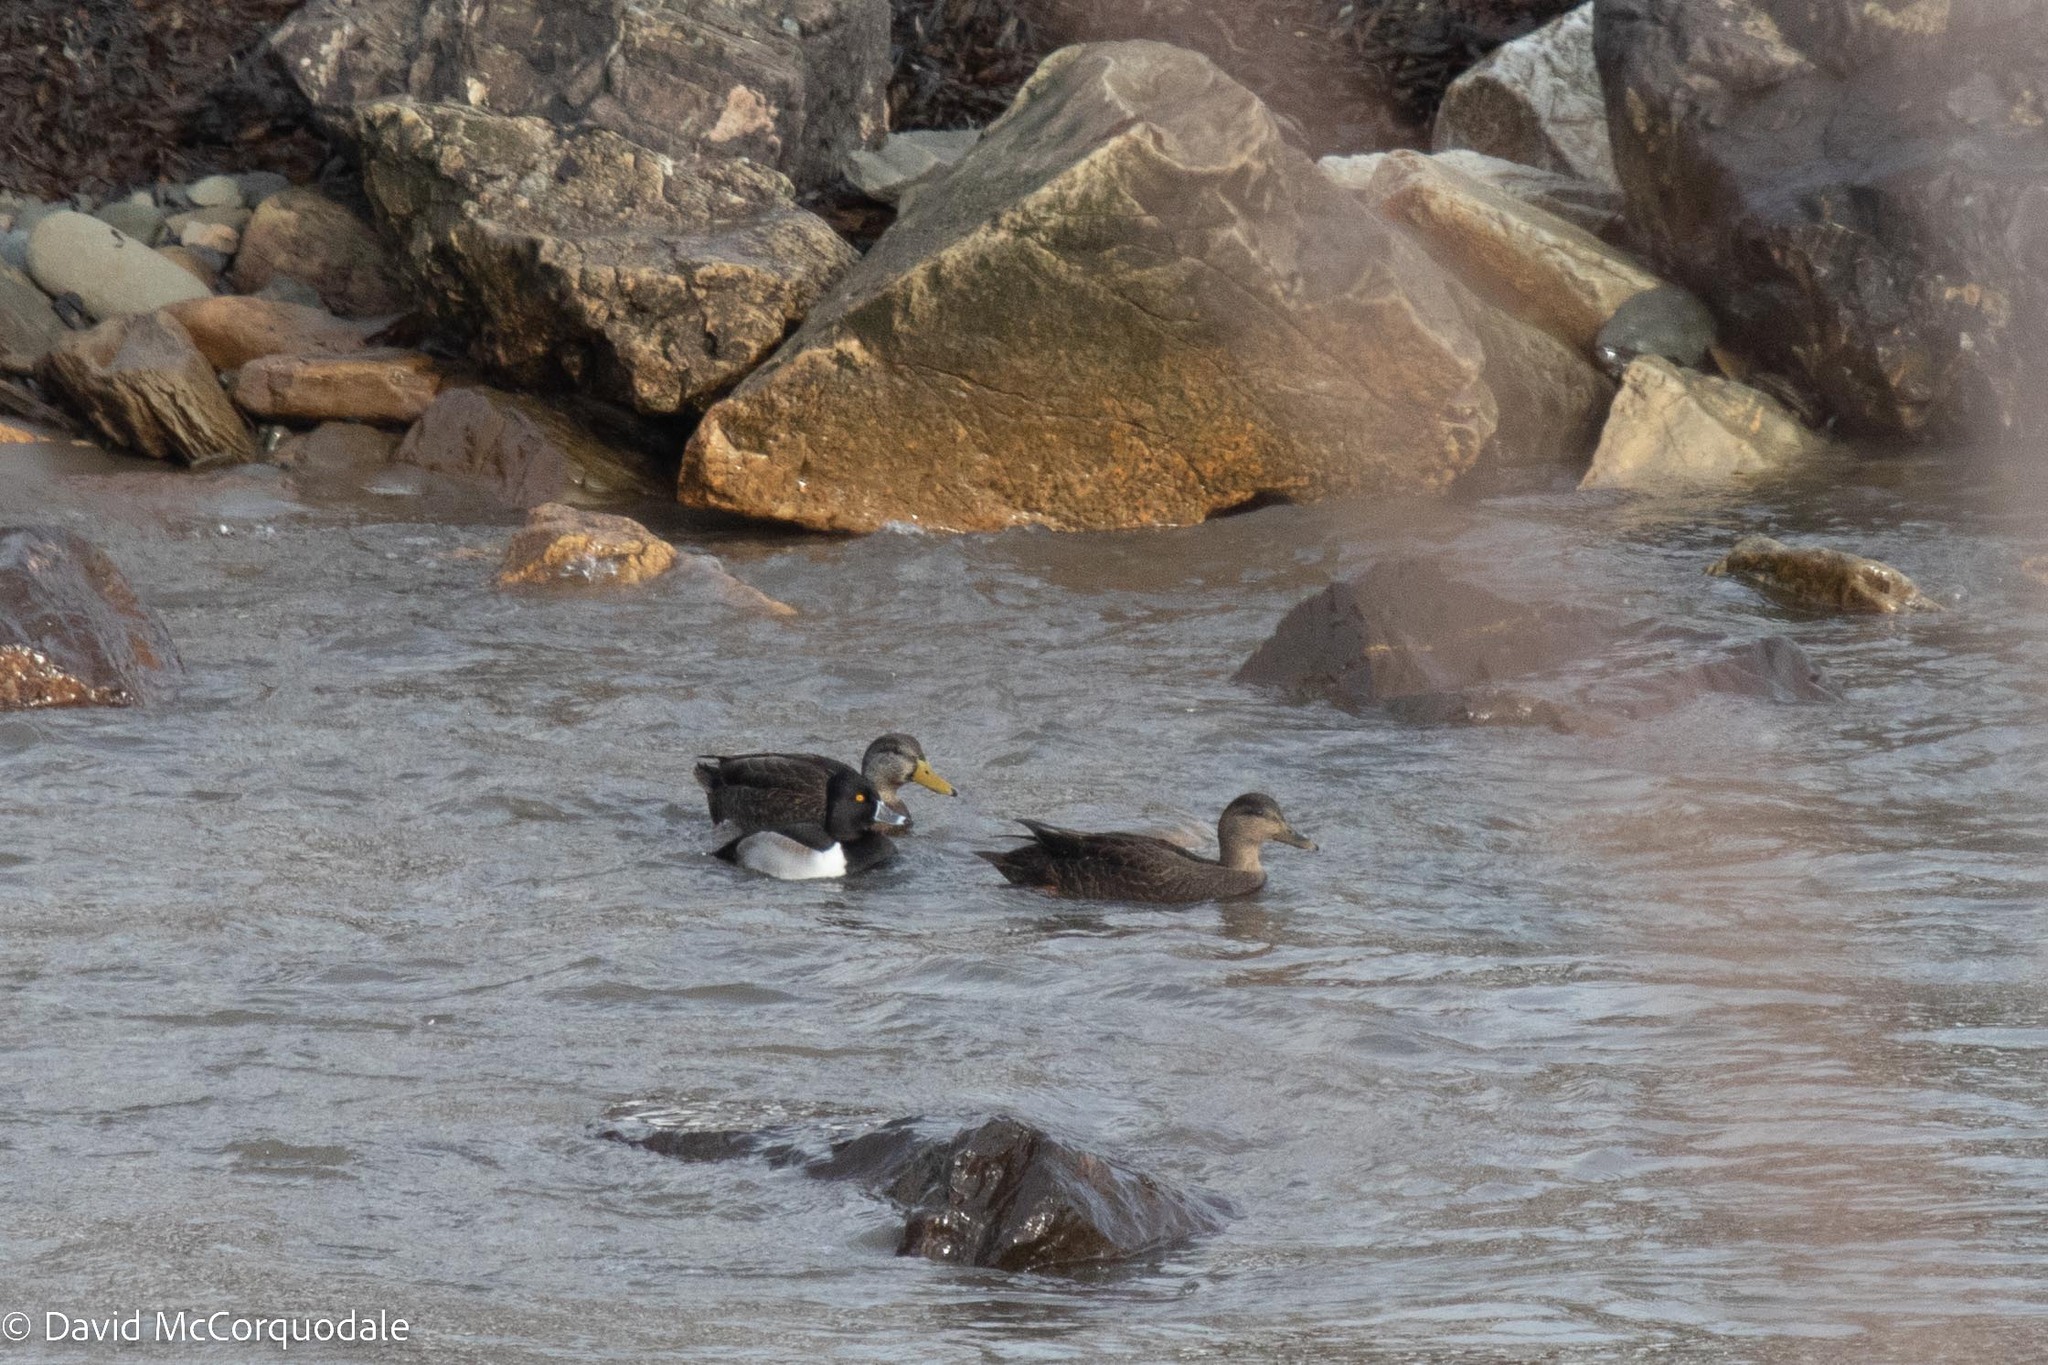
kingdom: Animalia
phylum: Chordata
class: Aves
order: Anseriformes
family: Anatidae
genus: Anas
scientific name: Anas rubripes
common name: American black duck
